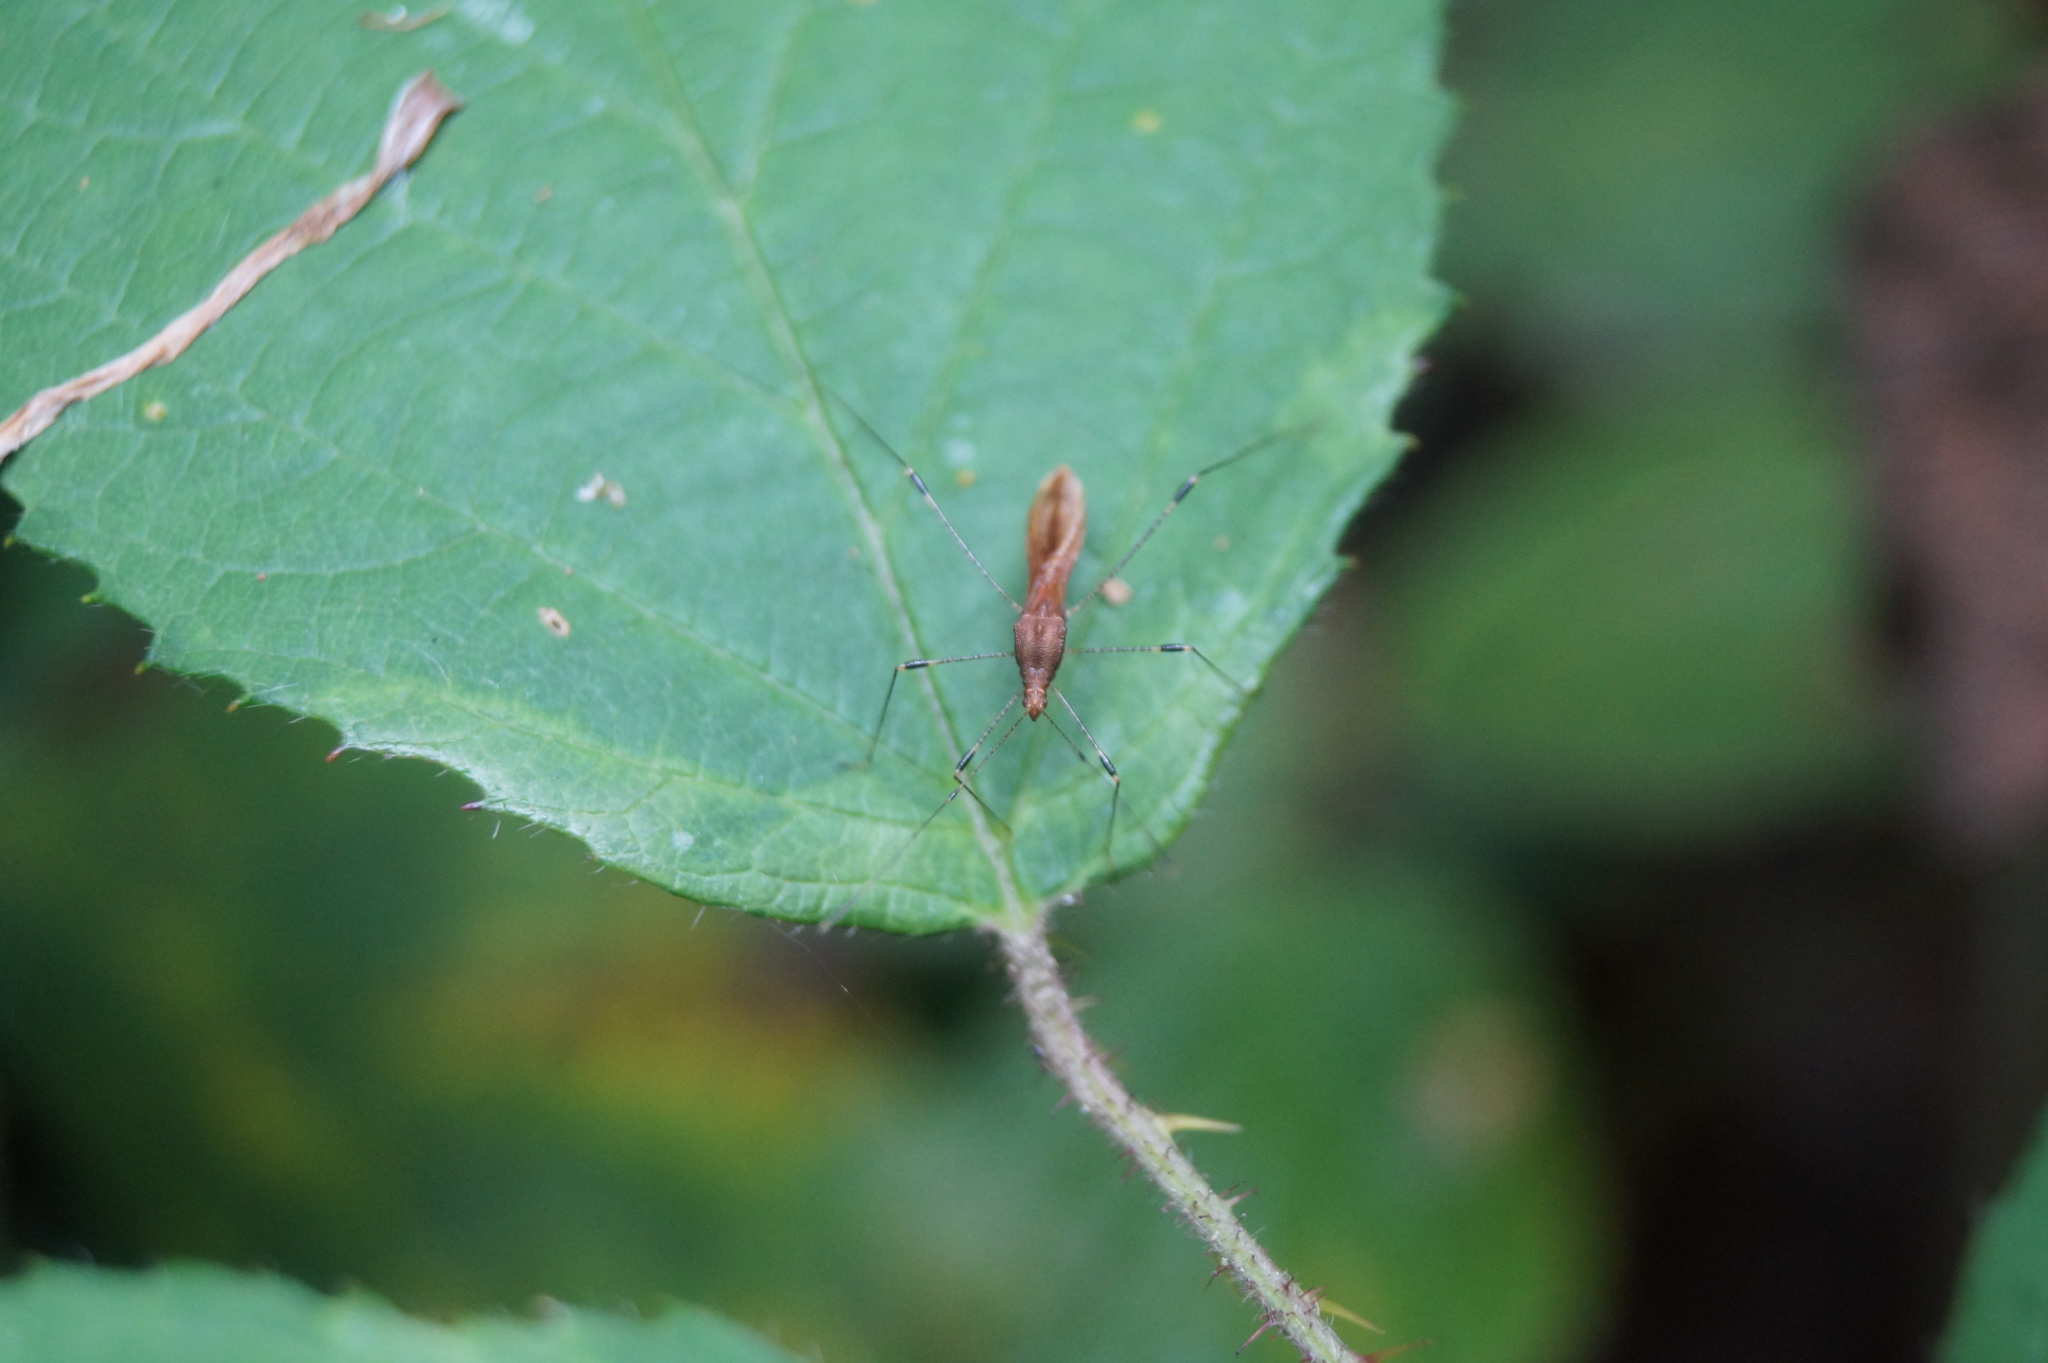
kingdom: Animalia
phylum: Arthropoda
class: Insecta
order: Hemiptera
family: Berytidae
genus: Metatropis
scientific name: Metatropis rufescens
